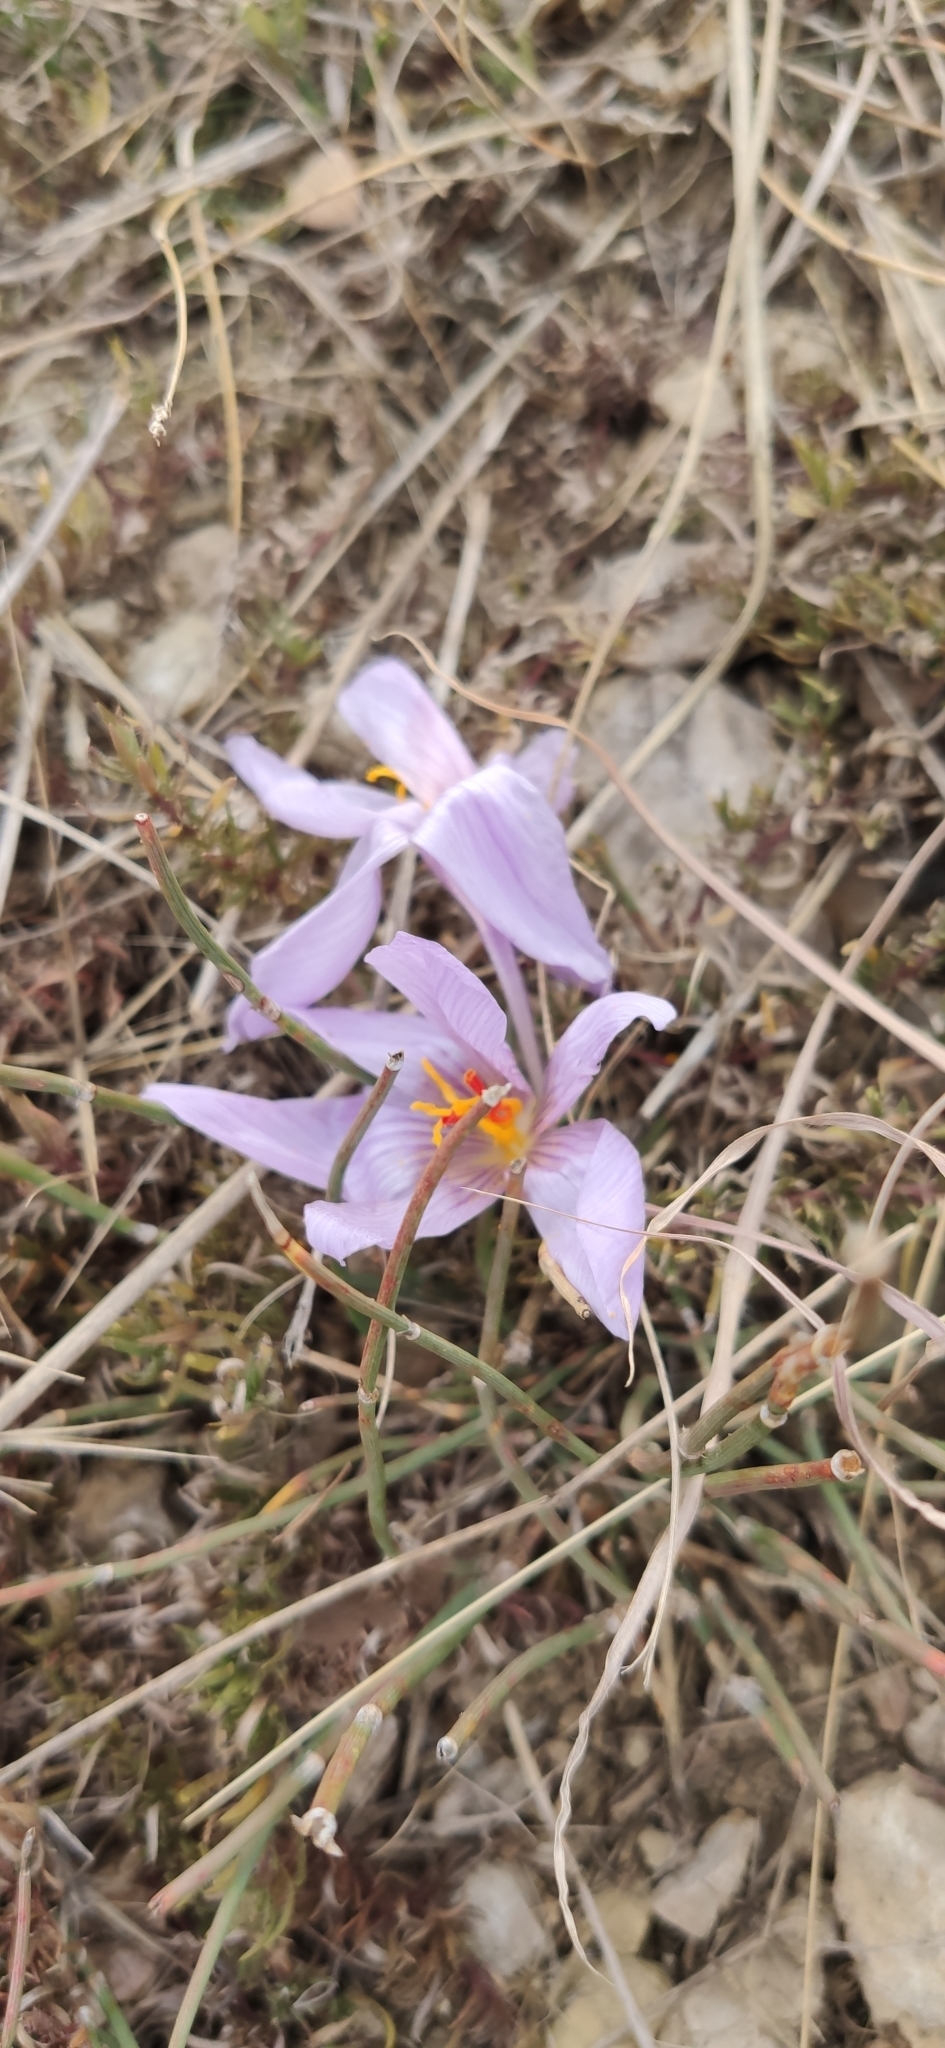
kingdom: Plantae
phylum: Tracheophyta
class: Liliopsida
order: Asparagales
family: Iridaceae
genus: Crocus
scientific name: Crocus pallasii
